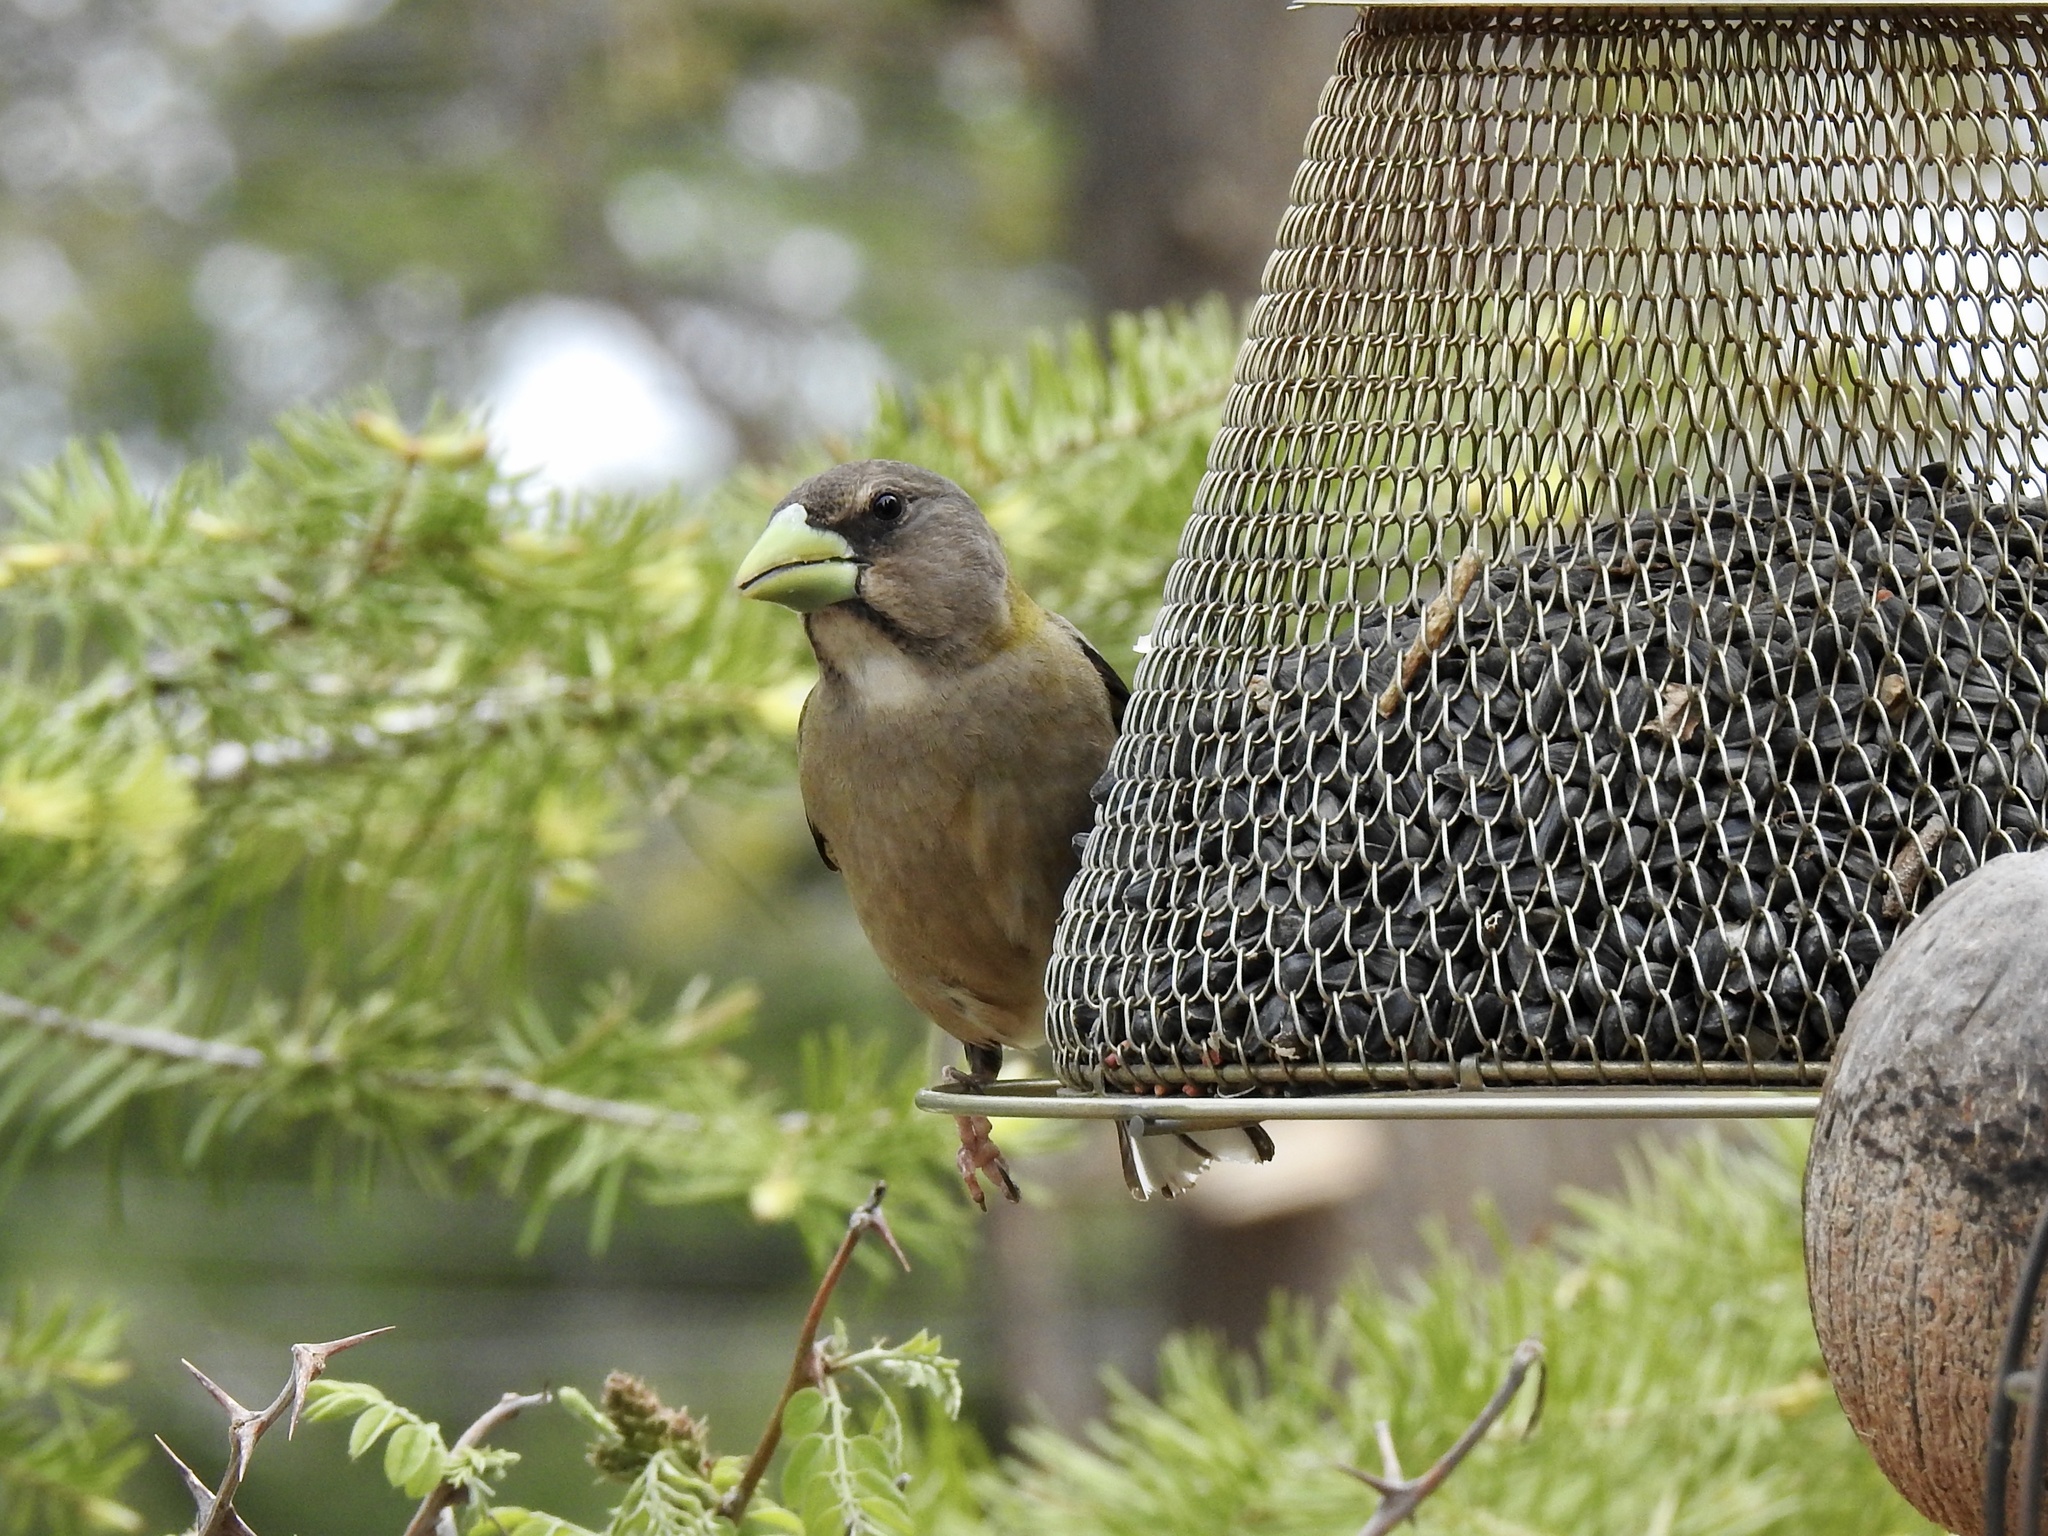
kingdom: Animalia
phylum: Chordata
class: Aves
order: Passeriformes
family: Fringillidae
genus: Hesperiphona
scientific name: Hesperiphona vespertina
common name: Evening grosbeak
